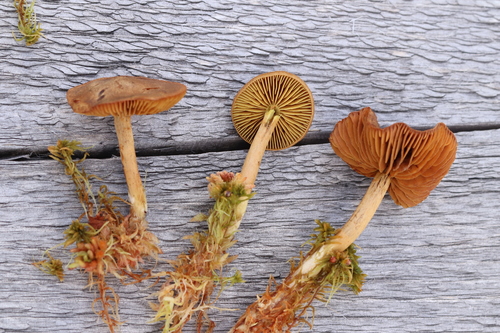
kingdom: Fungi
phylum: Basidiomycota
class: Agaricomycetes
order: Agaricales
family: Cortinariaceae
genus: Cortinarius
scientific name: Cortinarius chrysolitus
